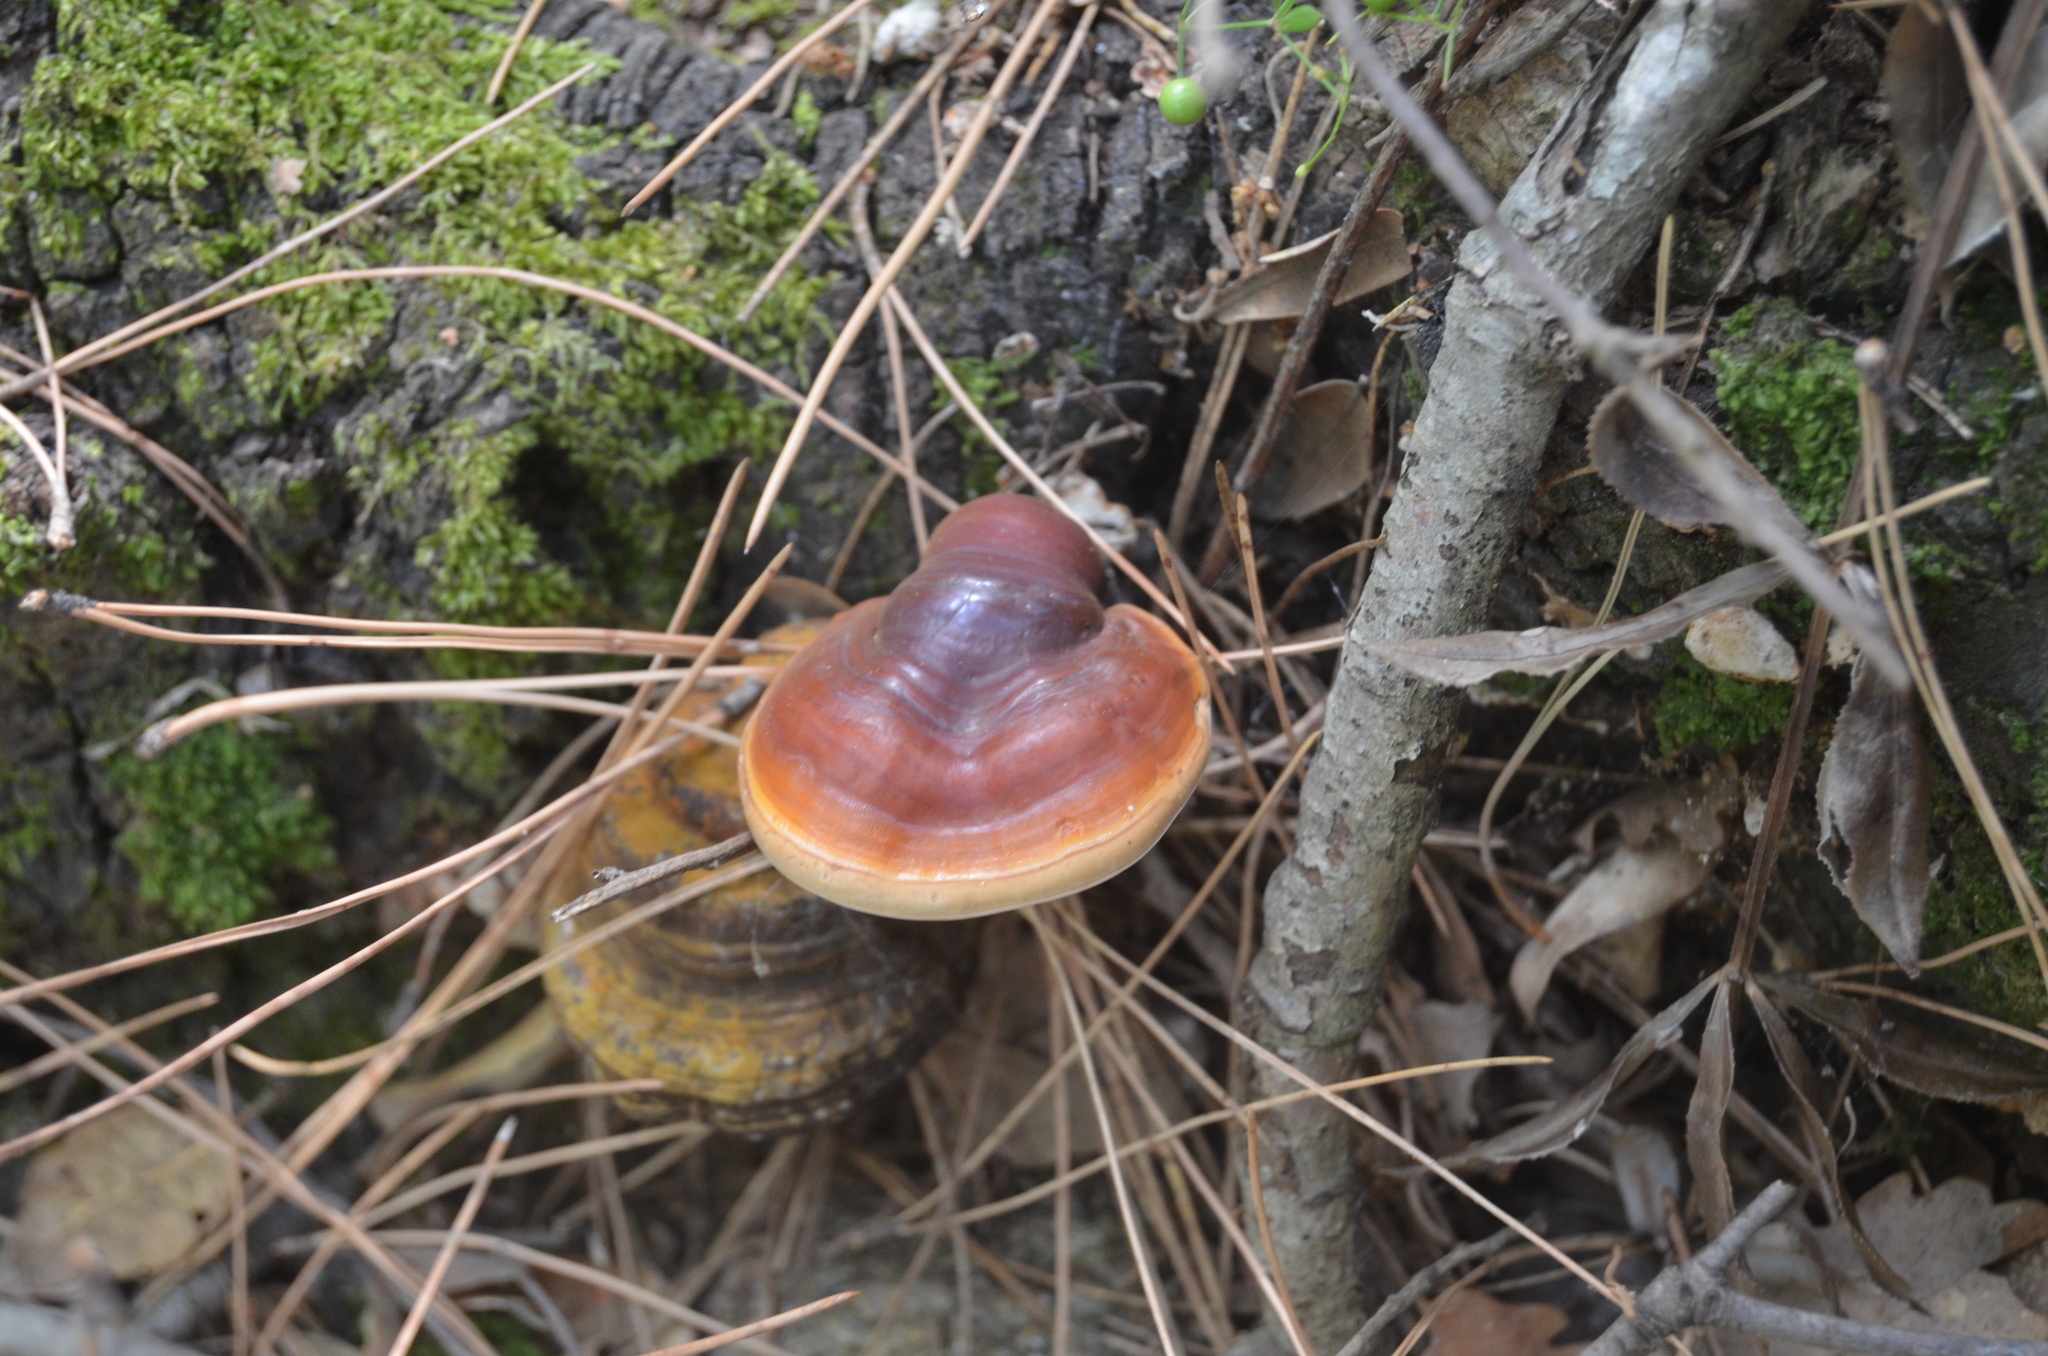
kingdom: Fungi
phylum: Basidiomycota
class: Agaricomycetes
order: Polyporales
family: Polyporaceae
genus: Ganoderma
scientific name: Ganoderma lucidum
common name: Lacquered bracket
